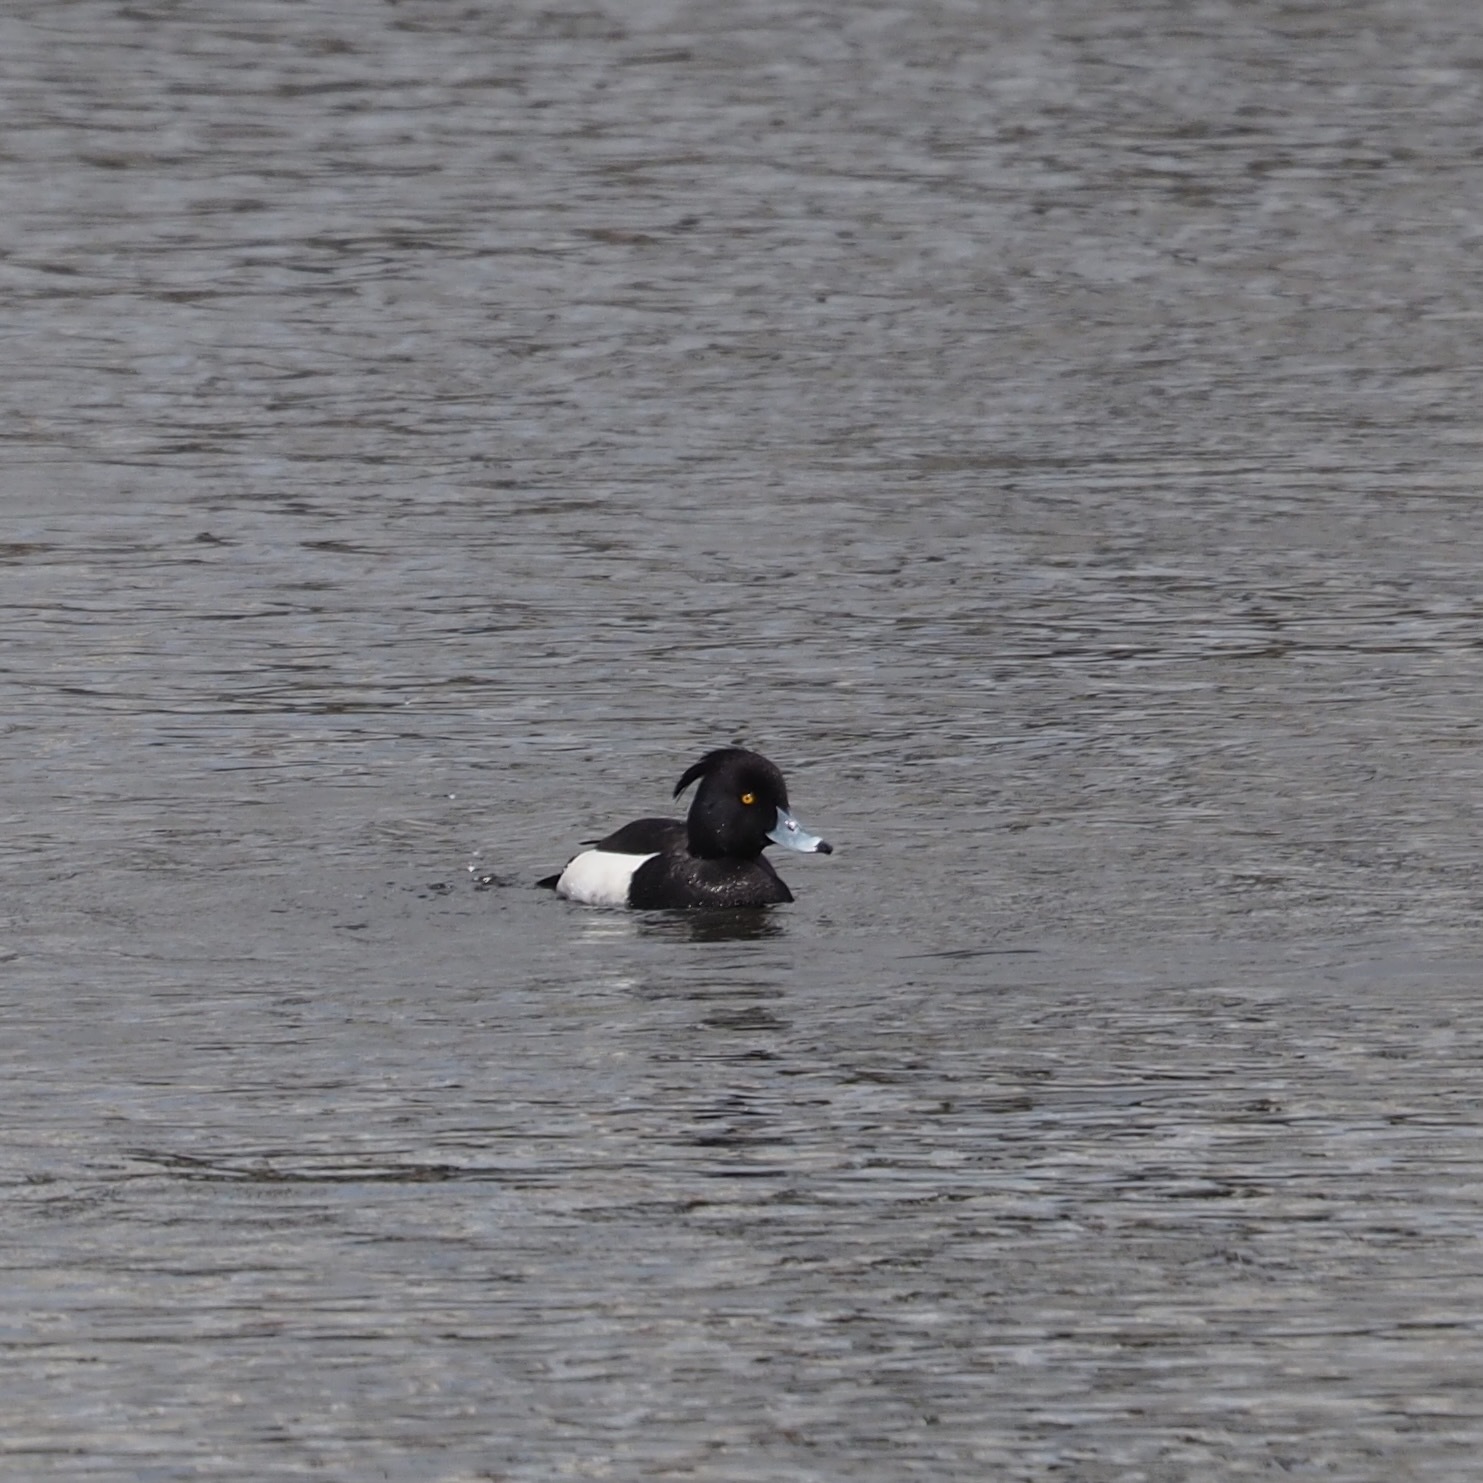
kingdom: Animalia
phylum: Chordata
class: Aves
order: Anseriformes
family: Anatidae
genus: Aythya
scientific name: Aythya fuligula
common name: Tufted duck
